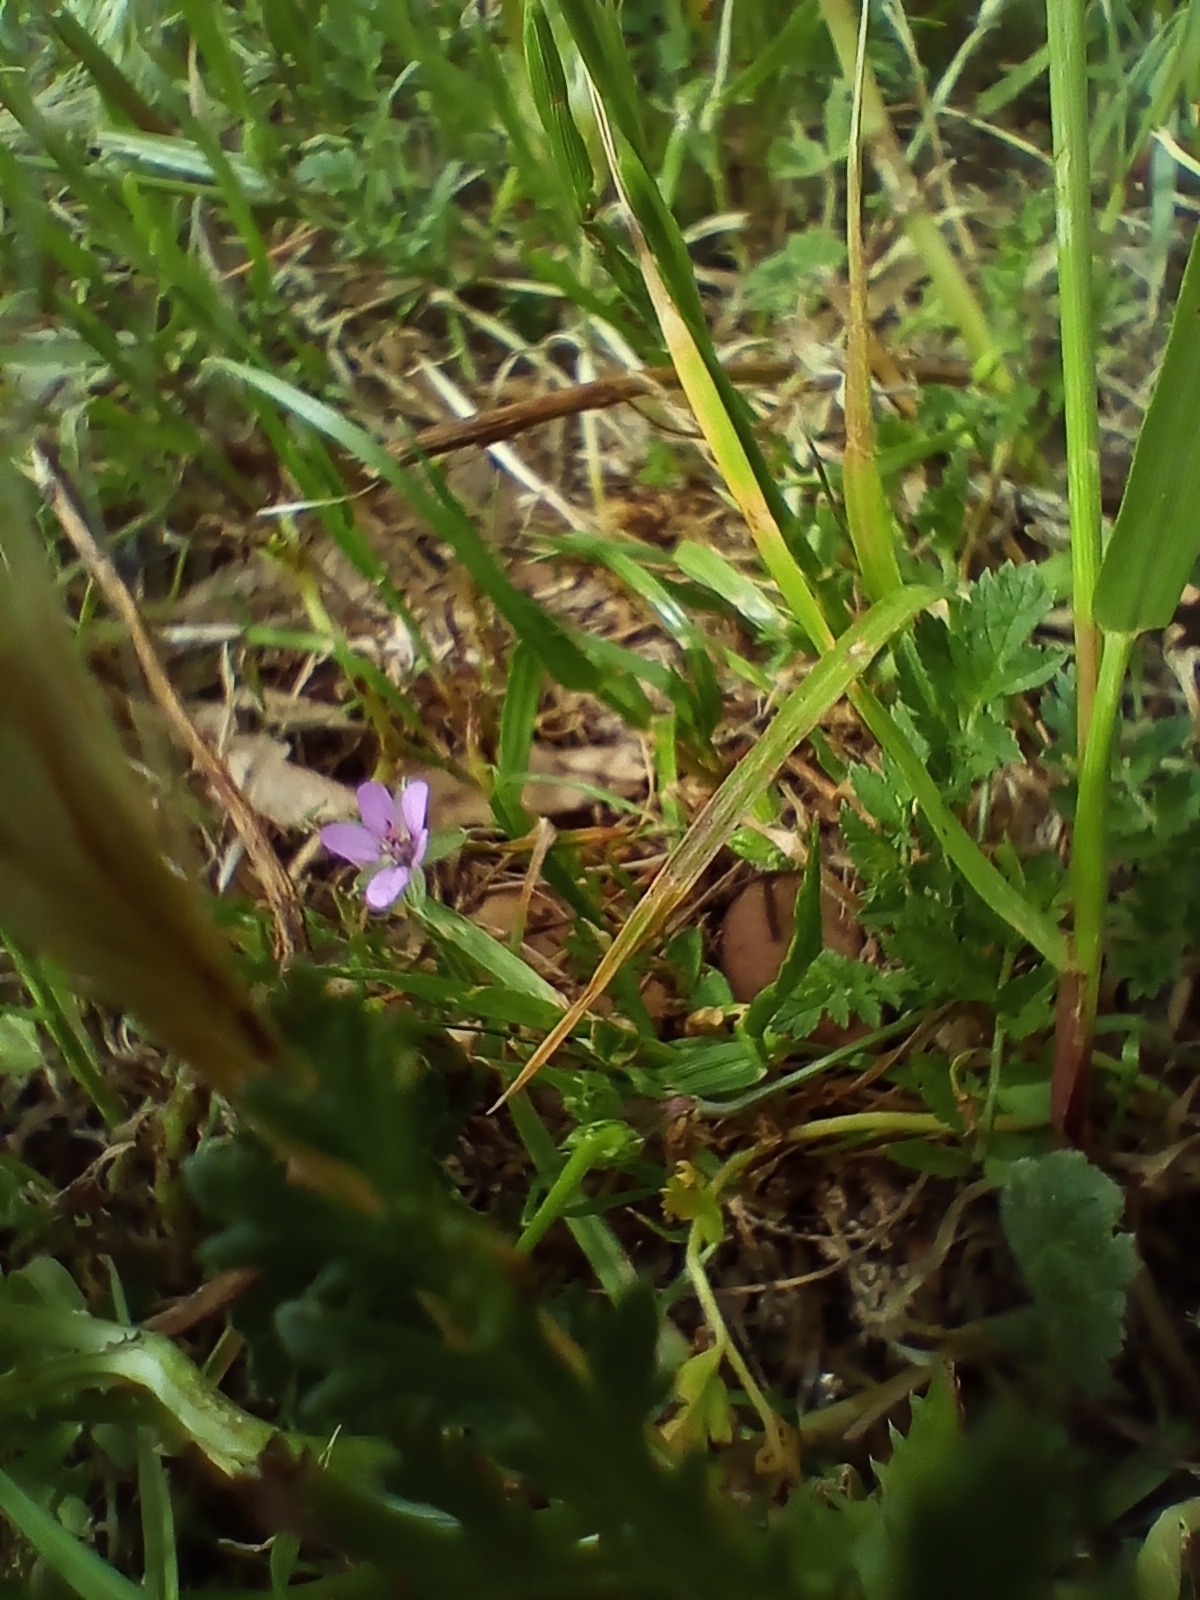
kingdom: Plantae
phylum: Tracheophyta
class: Magnoliopsida
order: Geraniales
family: Geraniaceae
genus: Erodium
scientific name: Erodium moschatum
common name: Musk stork's-bill
